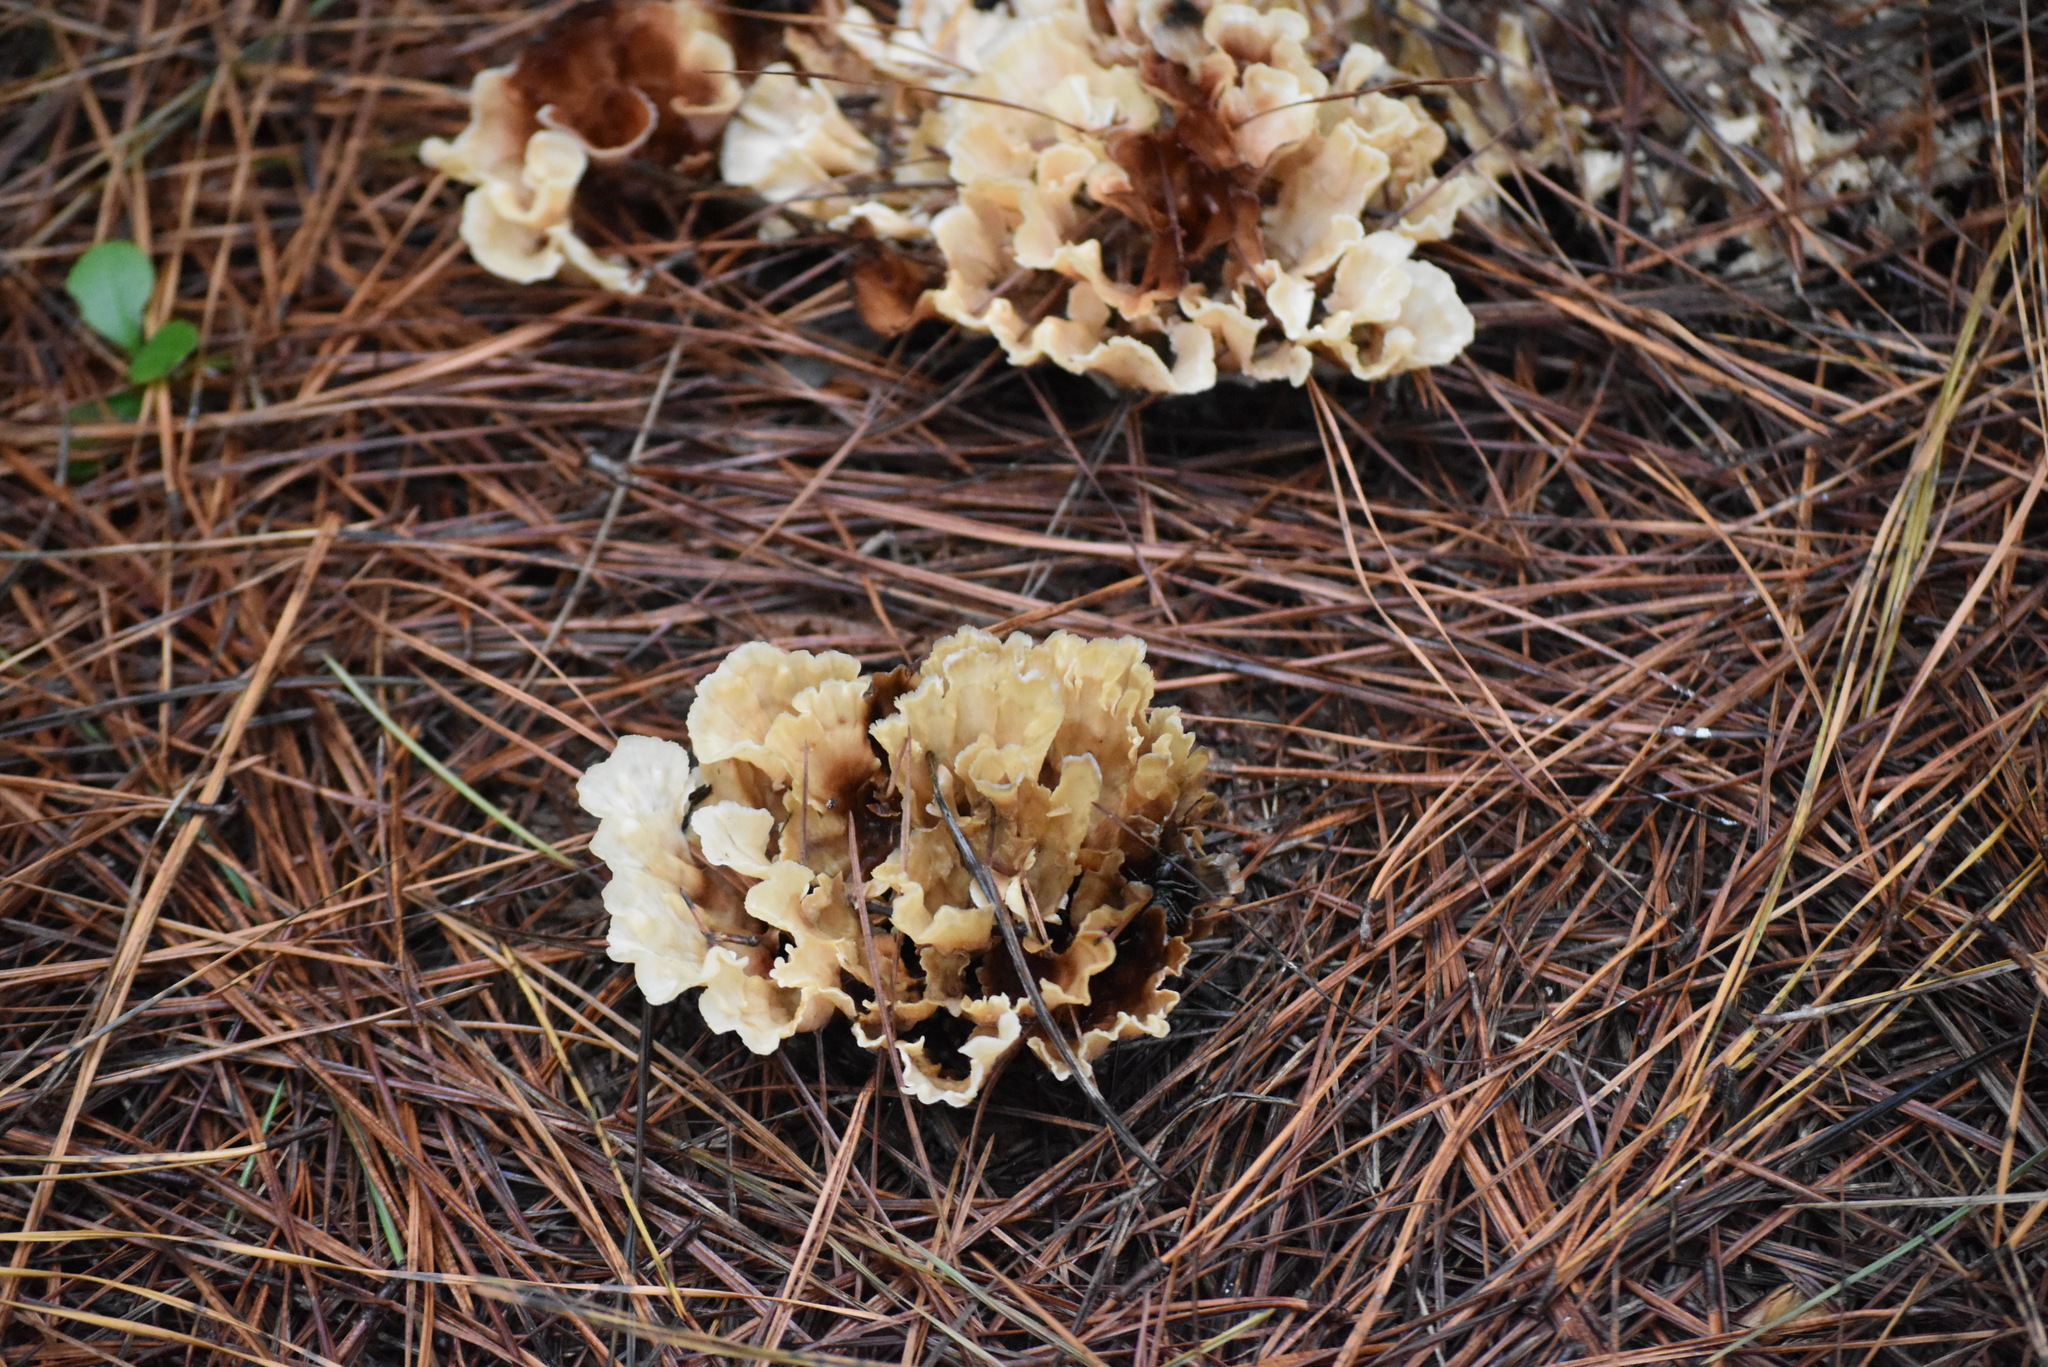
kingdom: Fungi
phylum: Basidiomycota
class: Agaricomycetes
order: Polyporales
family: Irpicaceae
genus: Irpex
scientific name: Irpex rosettiformis
